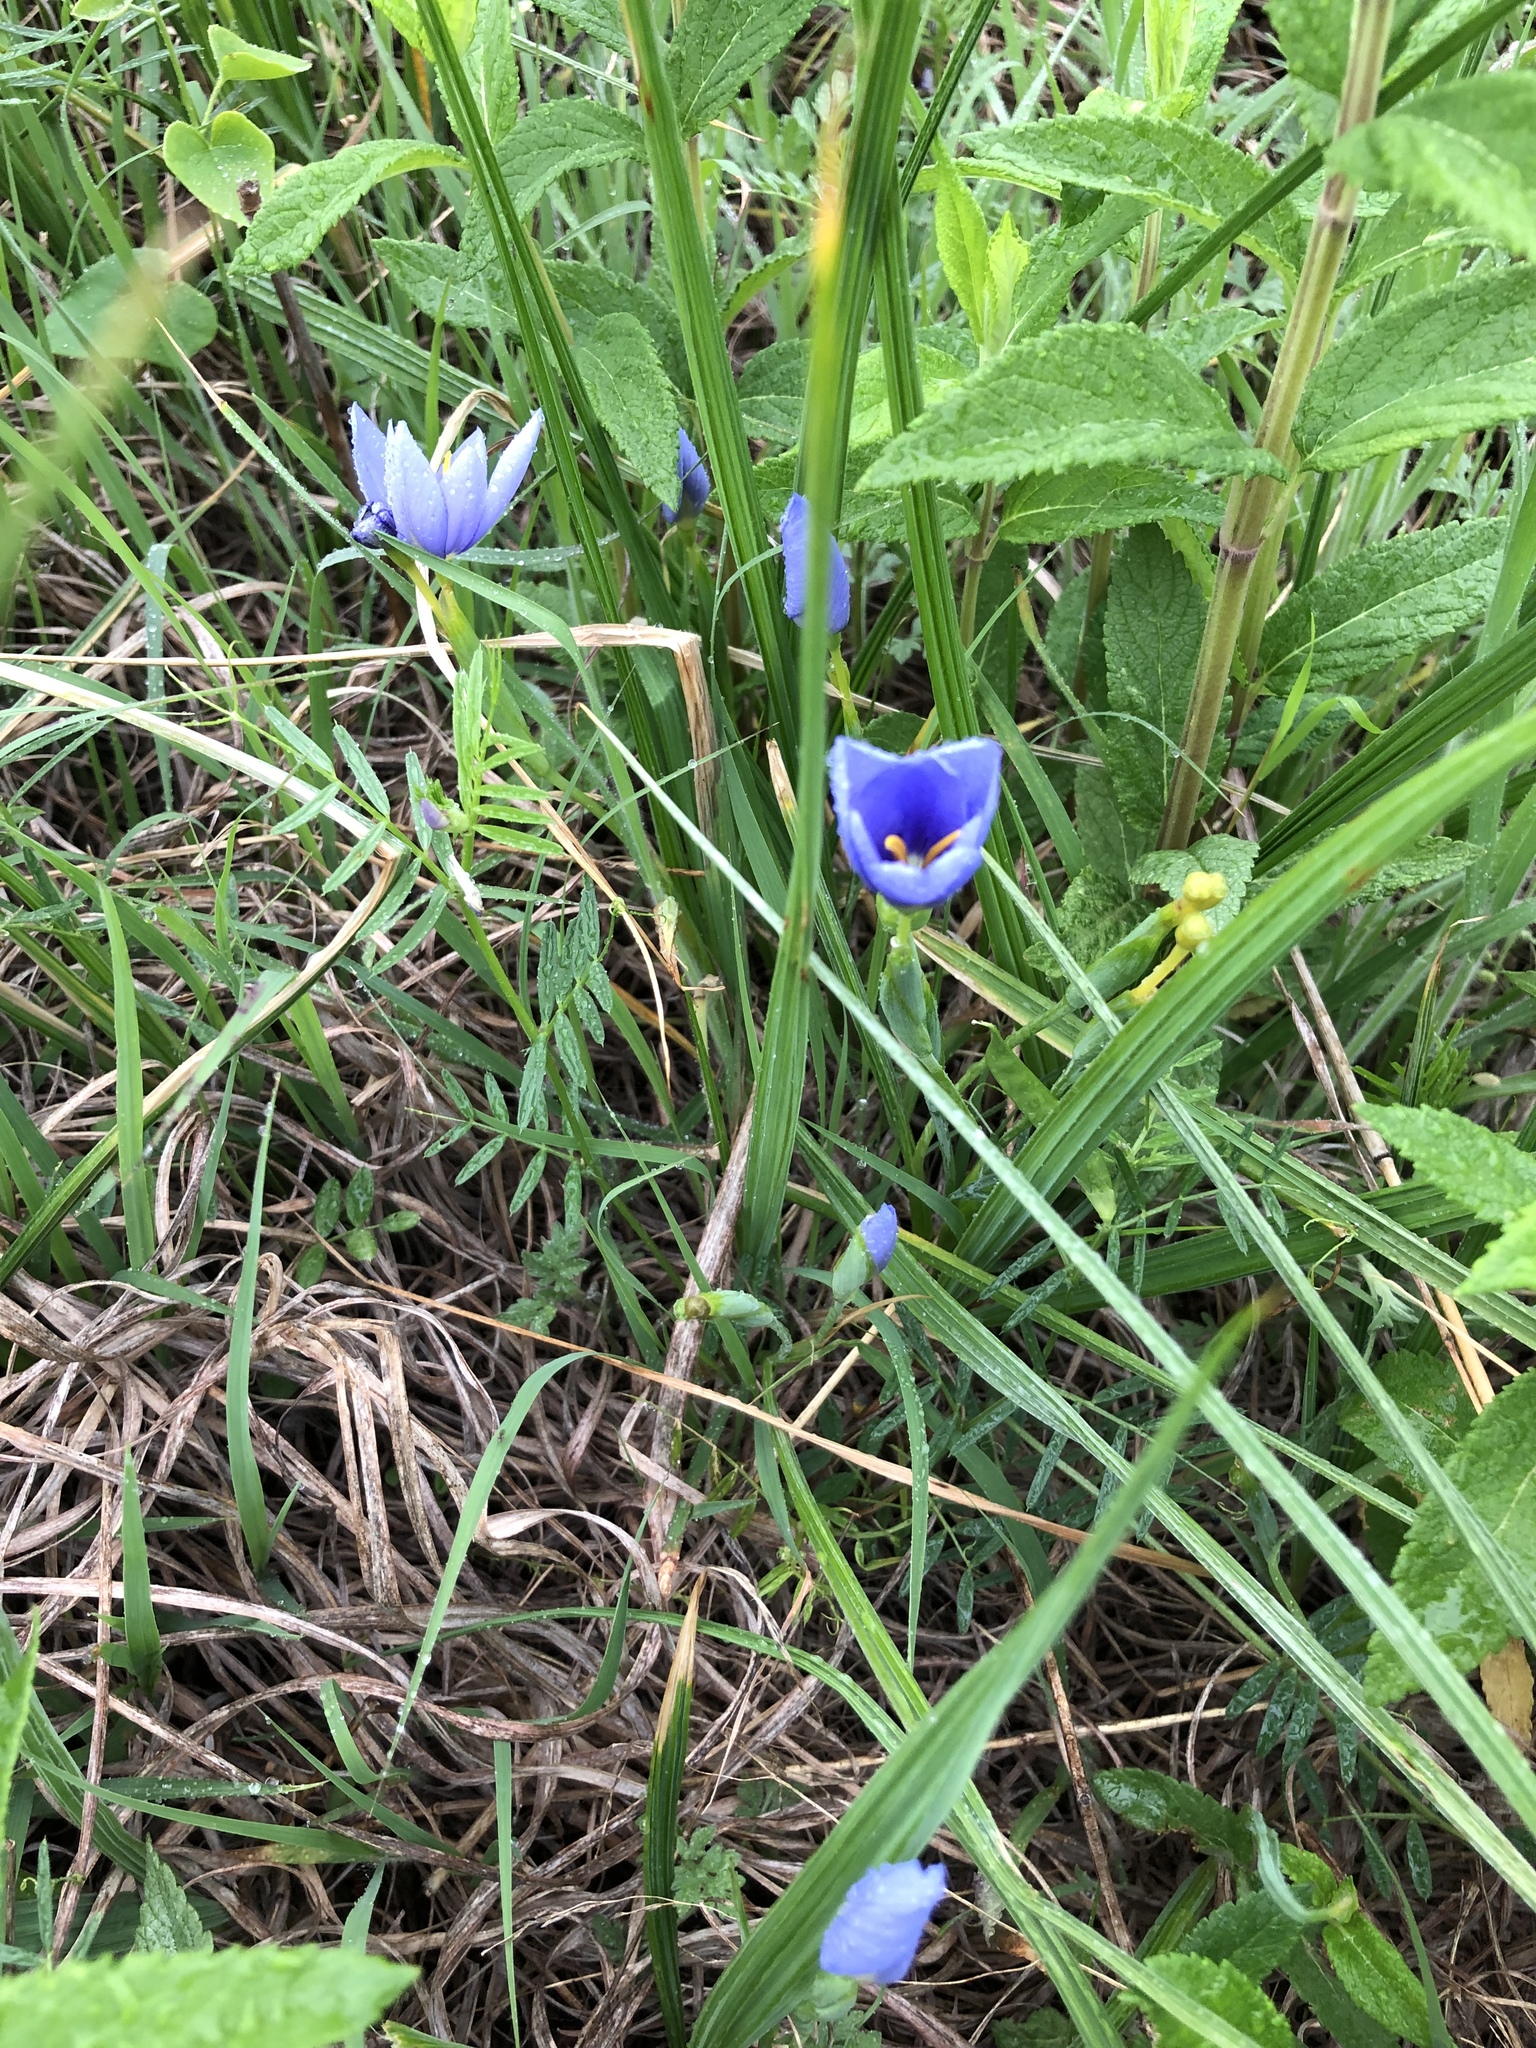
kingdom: Plantae
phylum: Tracheophyta
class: Liliopsida
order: Asparagales
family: Iridaceae
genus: Nemastylis
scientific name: Nemastylis geminiflora
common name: Prairie celestial
